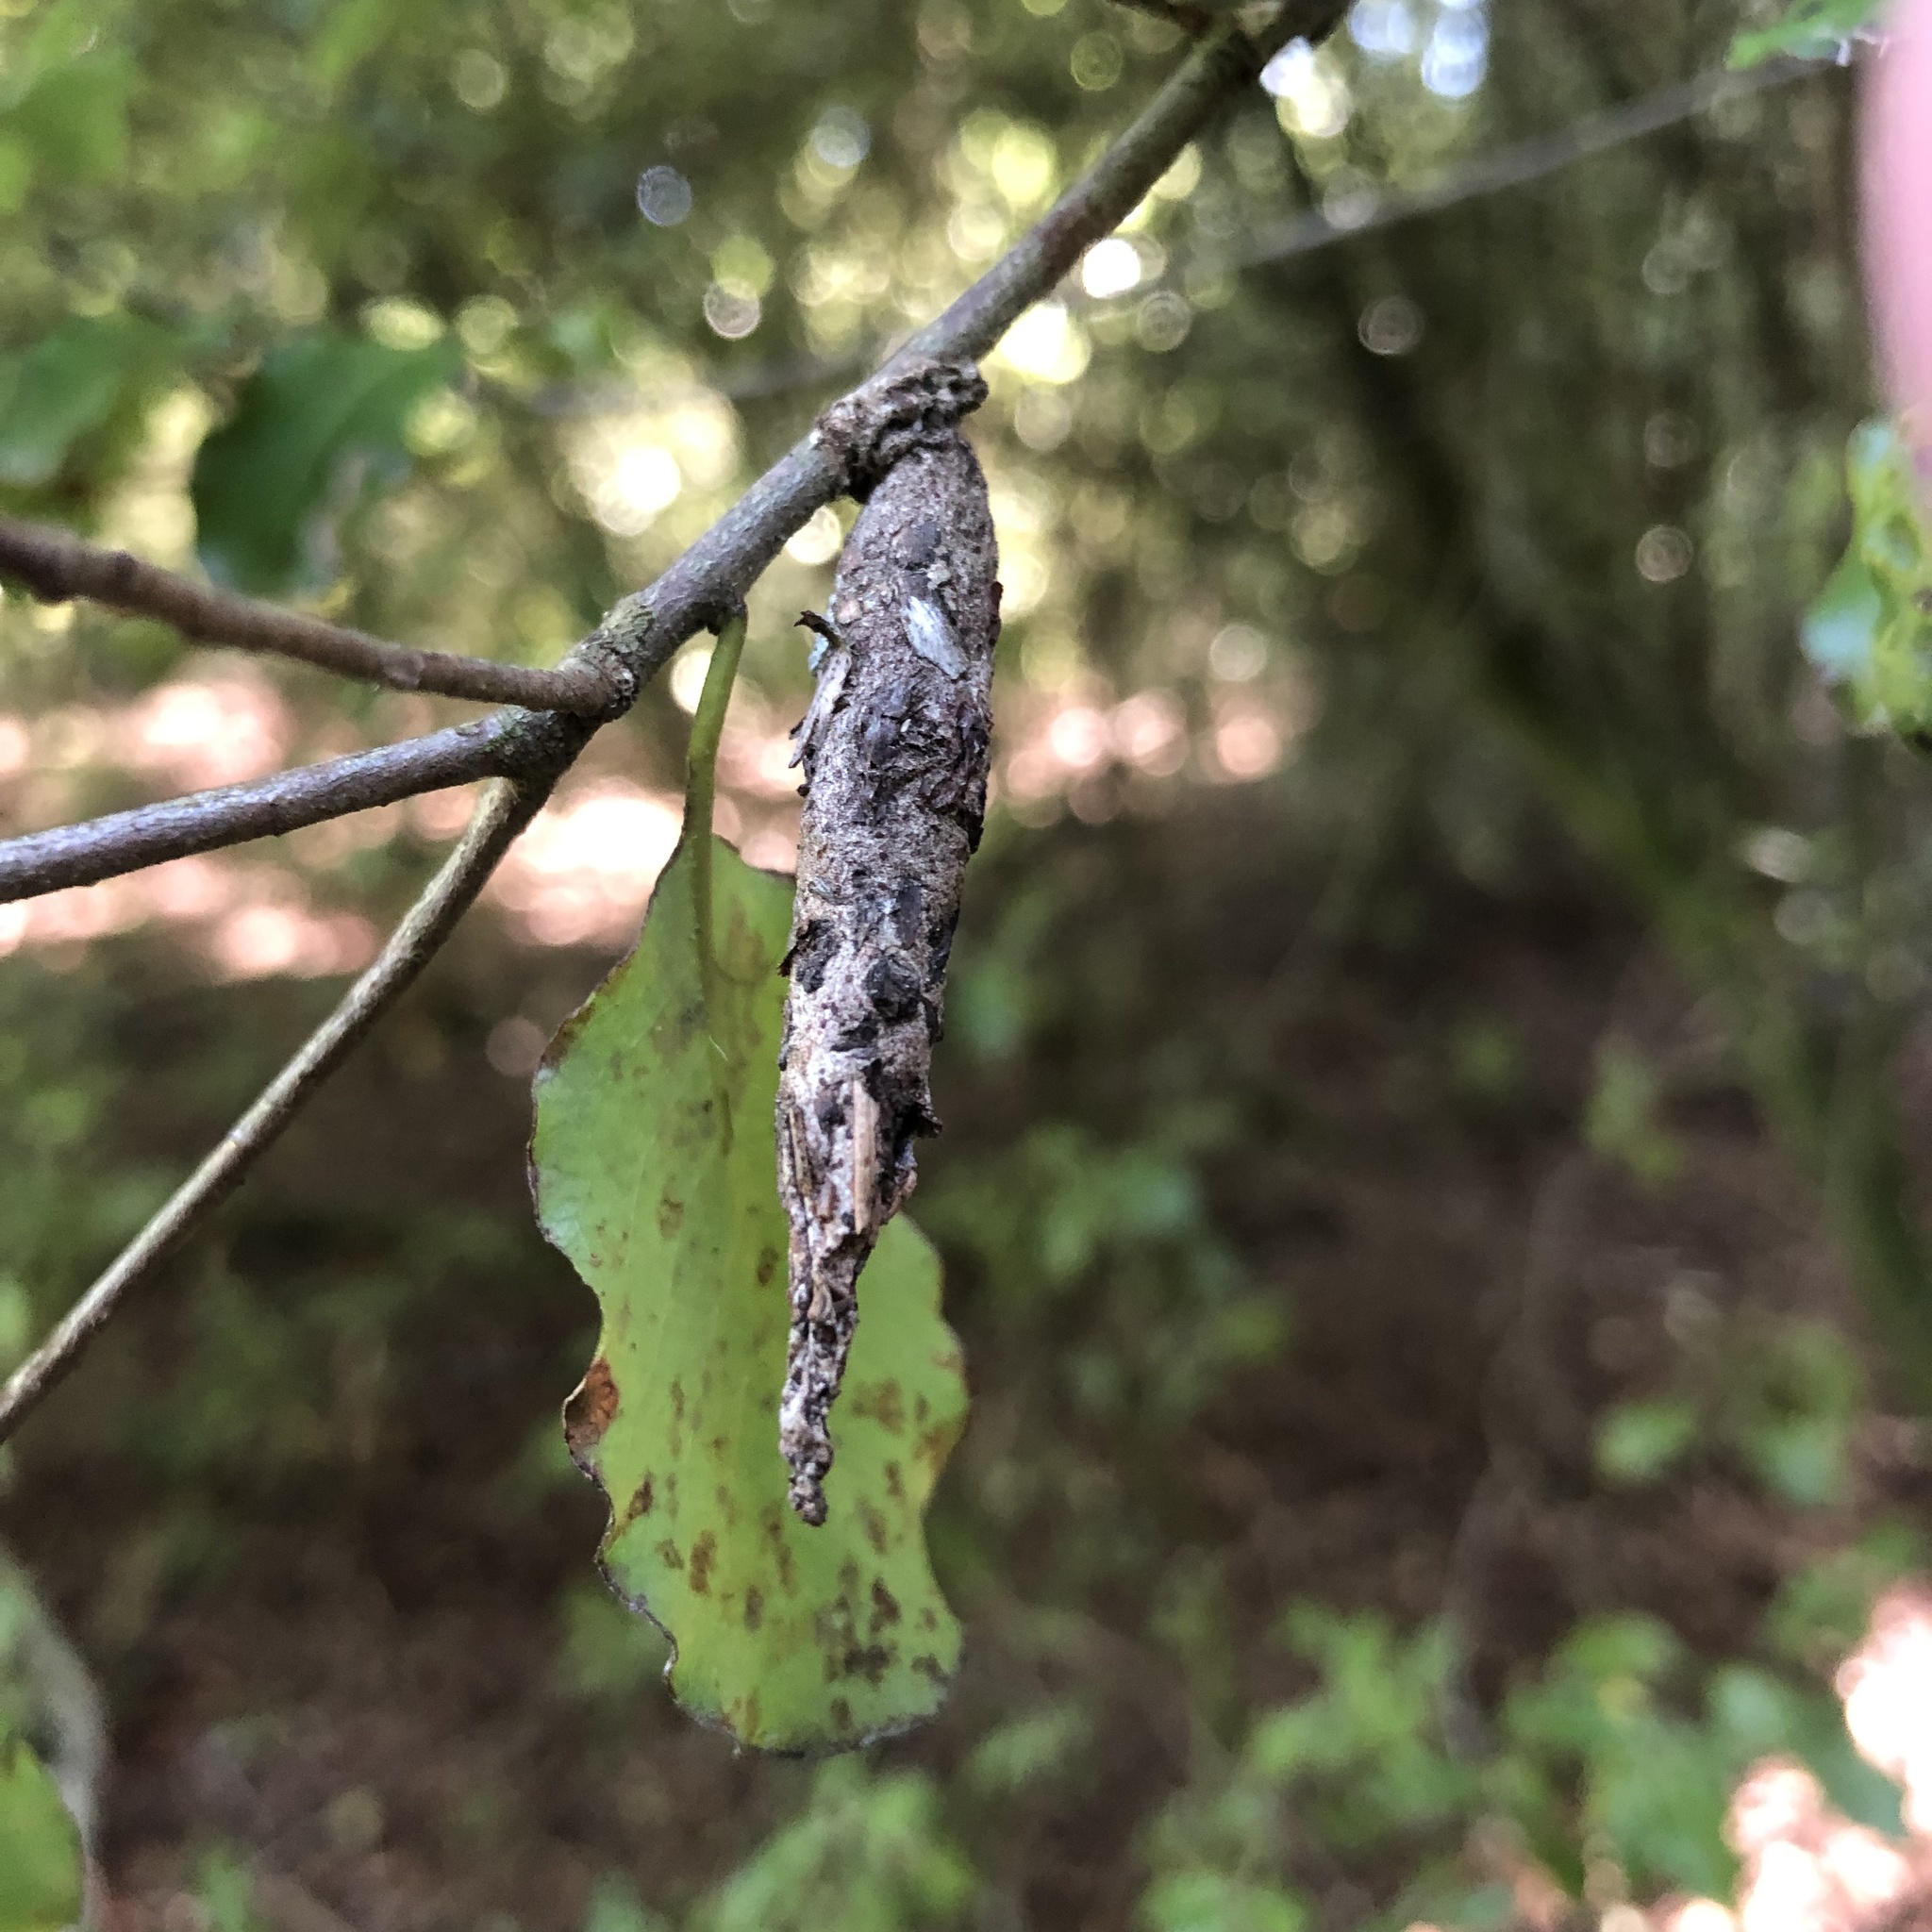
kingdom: Animalia
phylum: Arthropoda
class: Insecta
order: Lepidoptera
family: Psychidae
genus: Liothula
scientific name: Liothula omnivora
